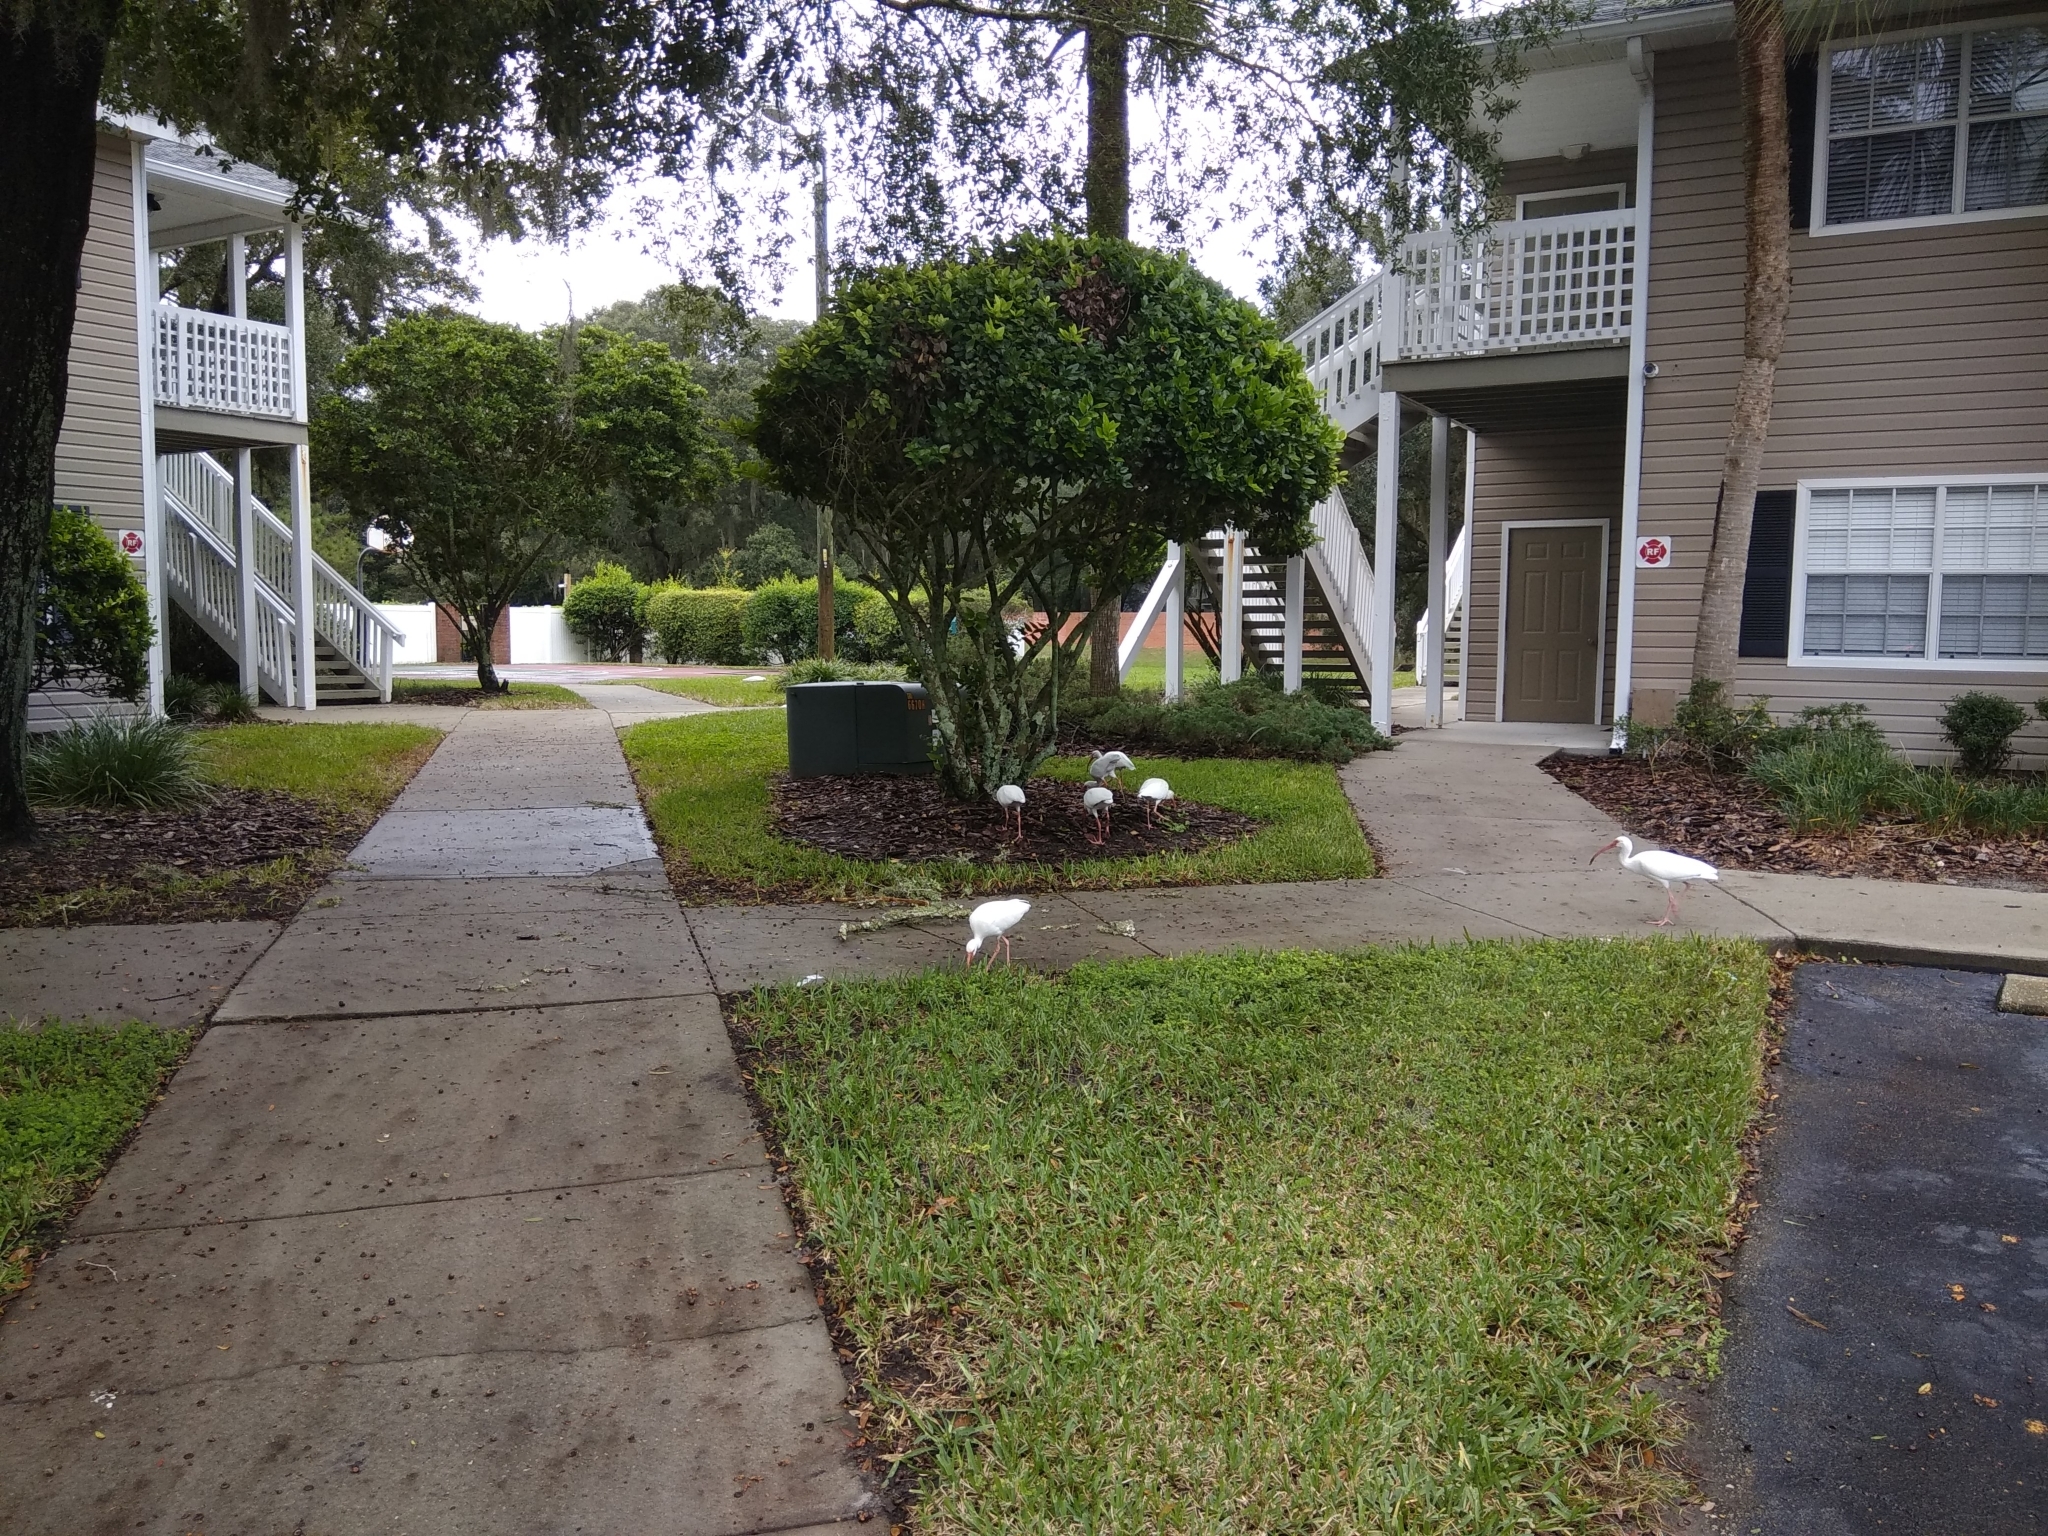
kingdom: Animalia
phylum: Chordata
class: Aves
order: Pelecaniformes
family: Threskiornithidae
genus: Eudocimus
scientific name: Eudocimus albus
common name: White ibis
